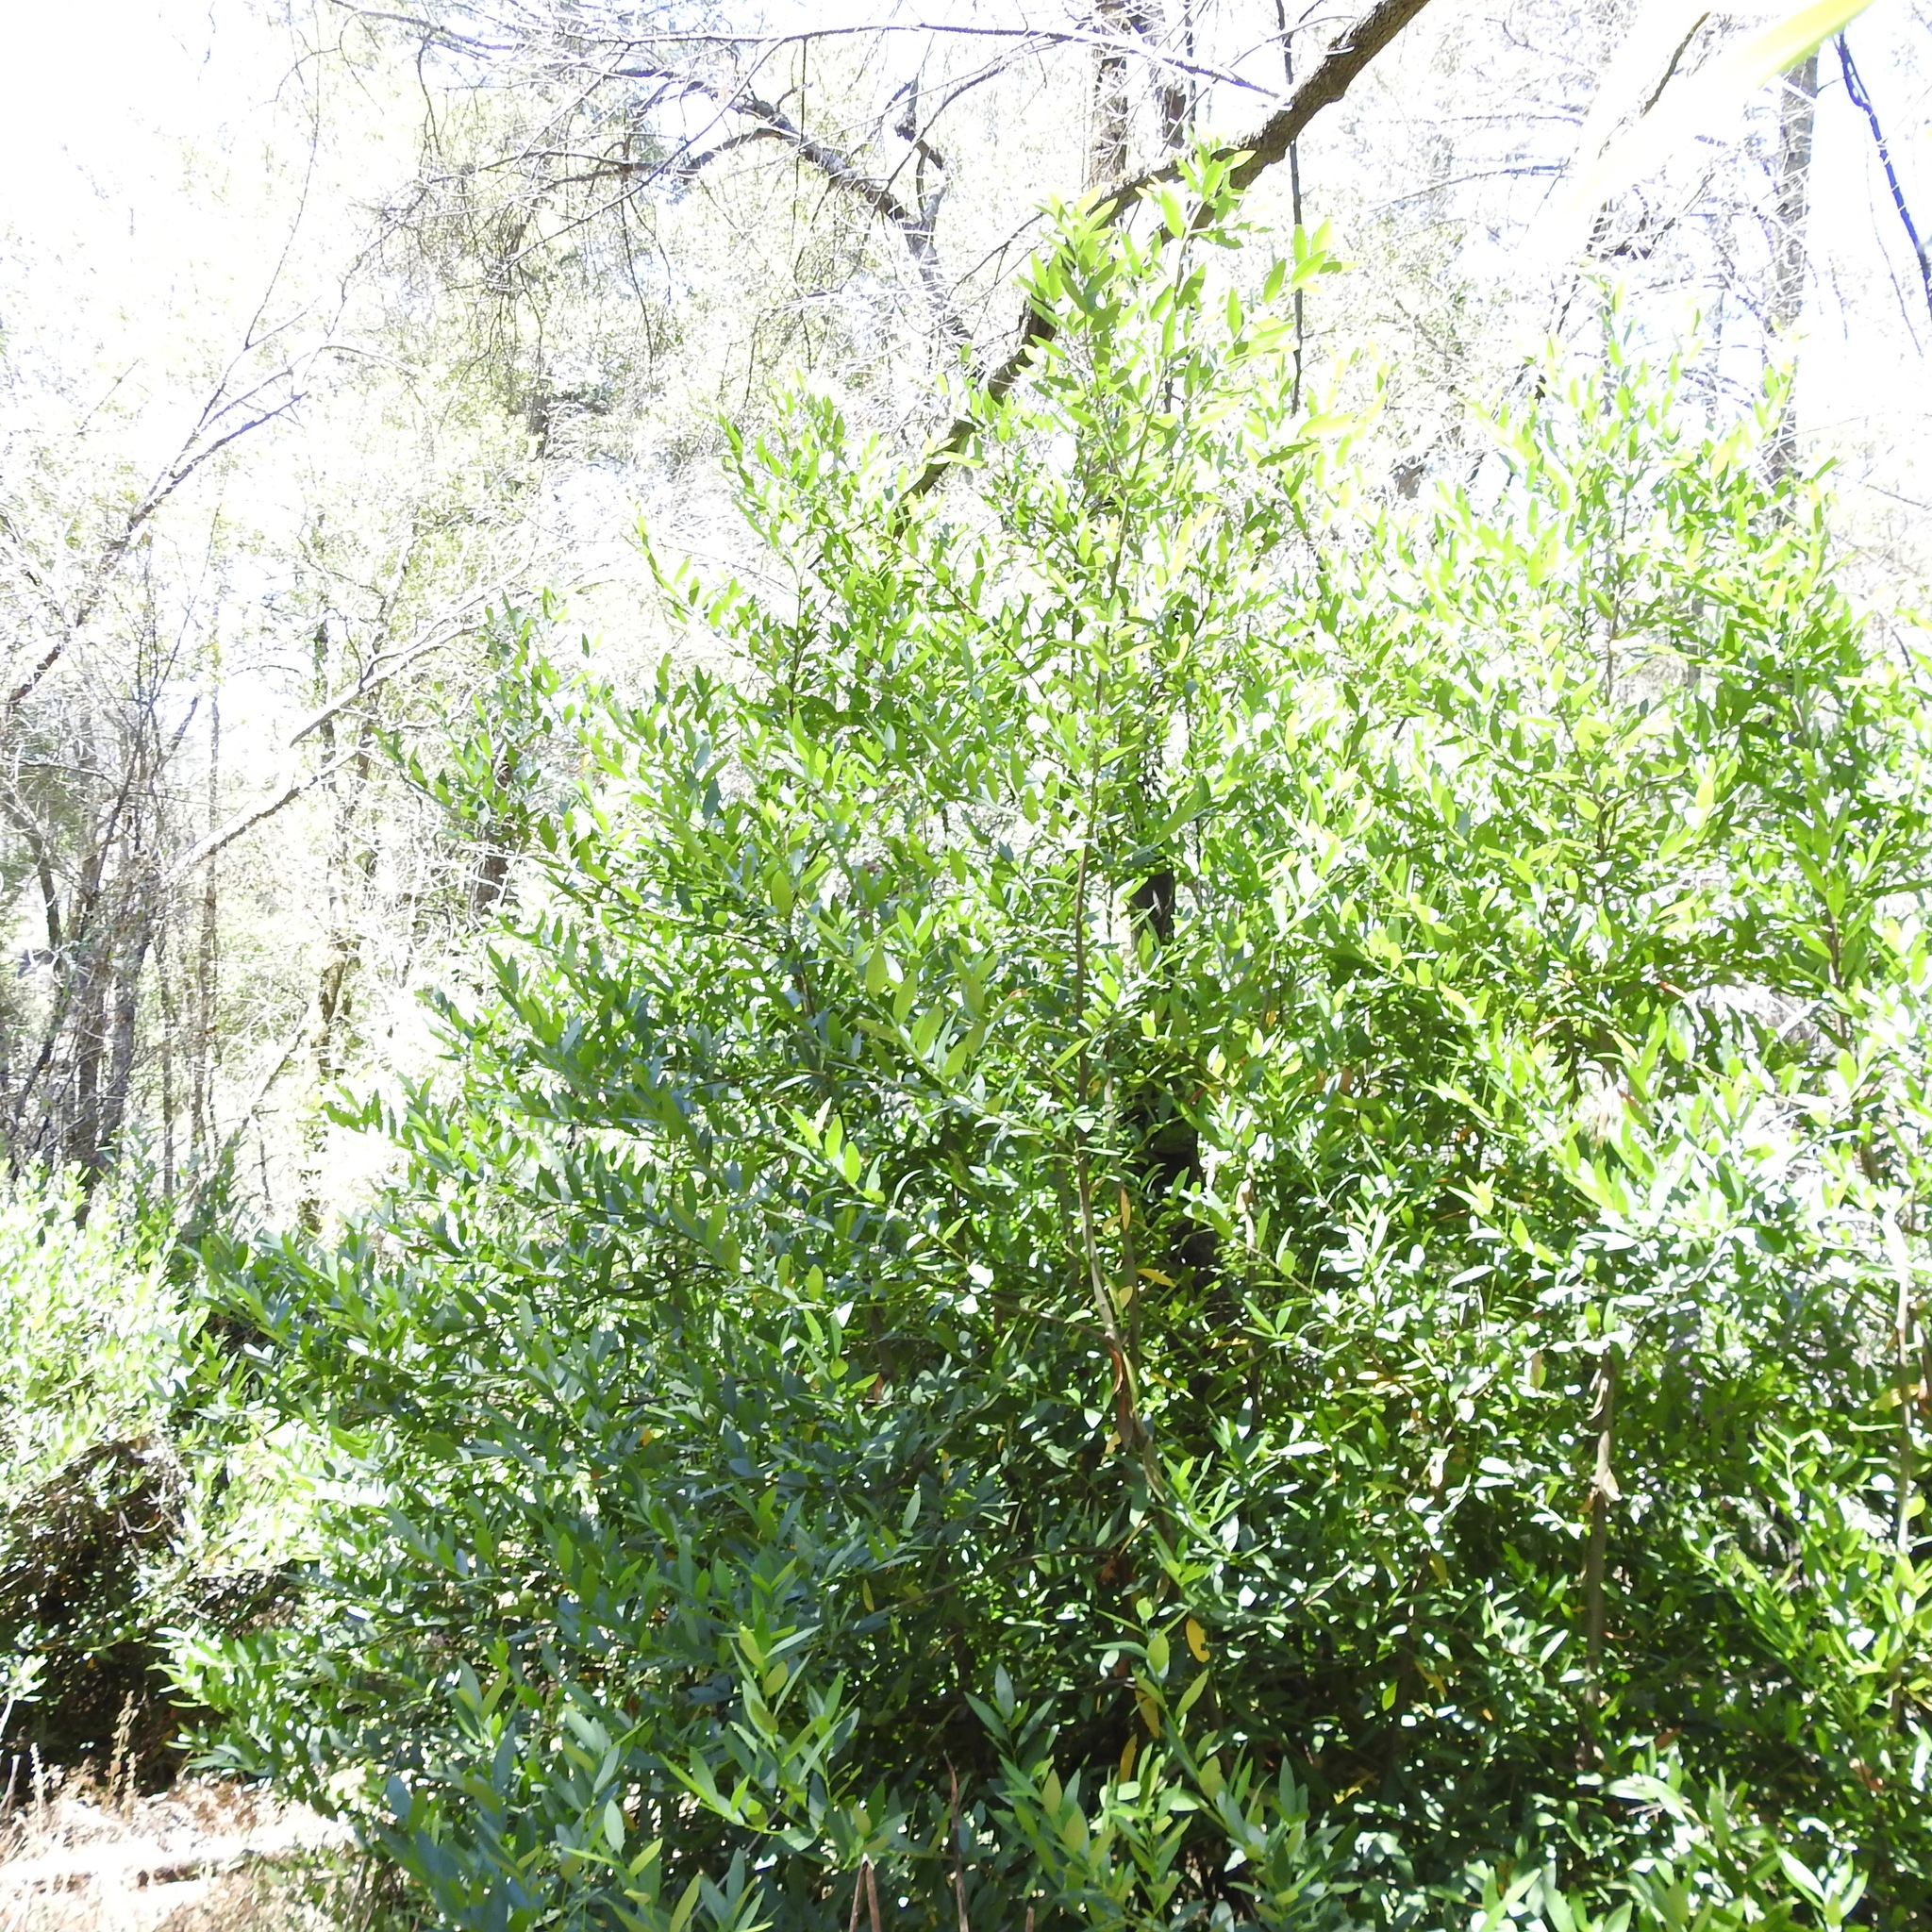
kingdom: Plantae
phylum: Tracheophyta
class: Magnoliopsida
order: Laurales
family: Lauraceae
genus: Umbellularia
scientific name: Umbellularia californica
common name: California bay
